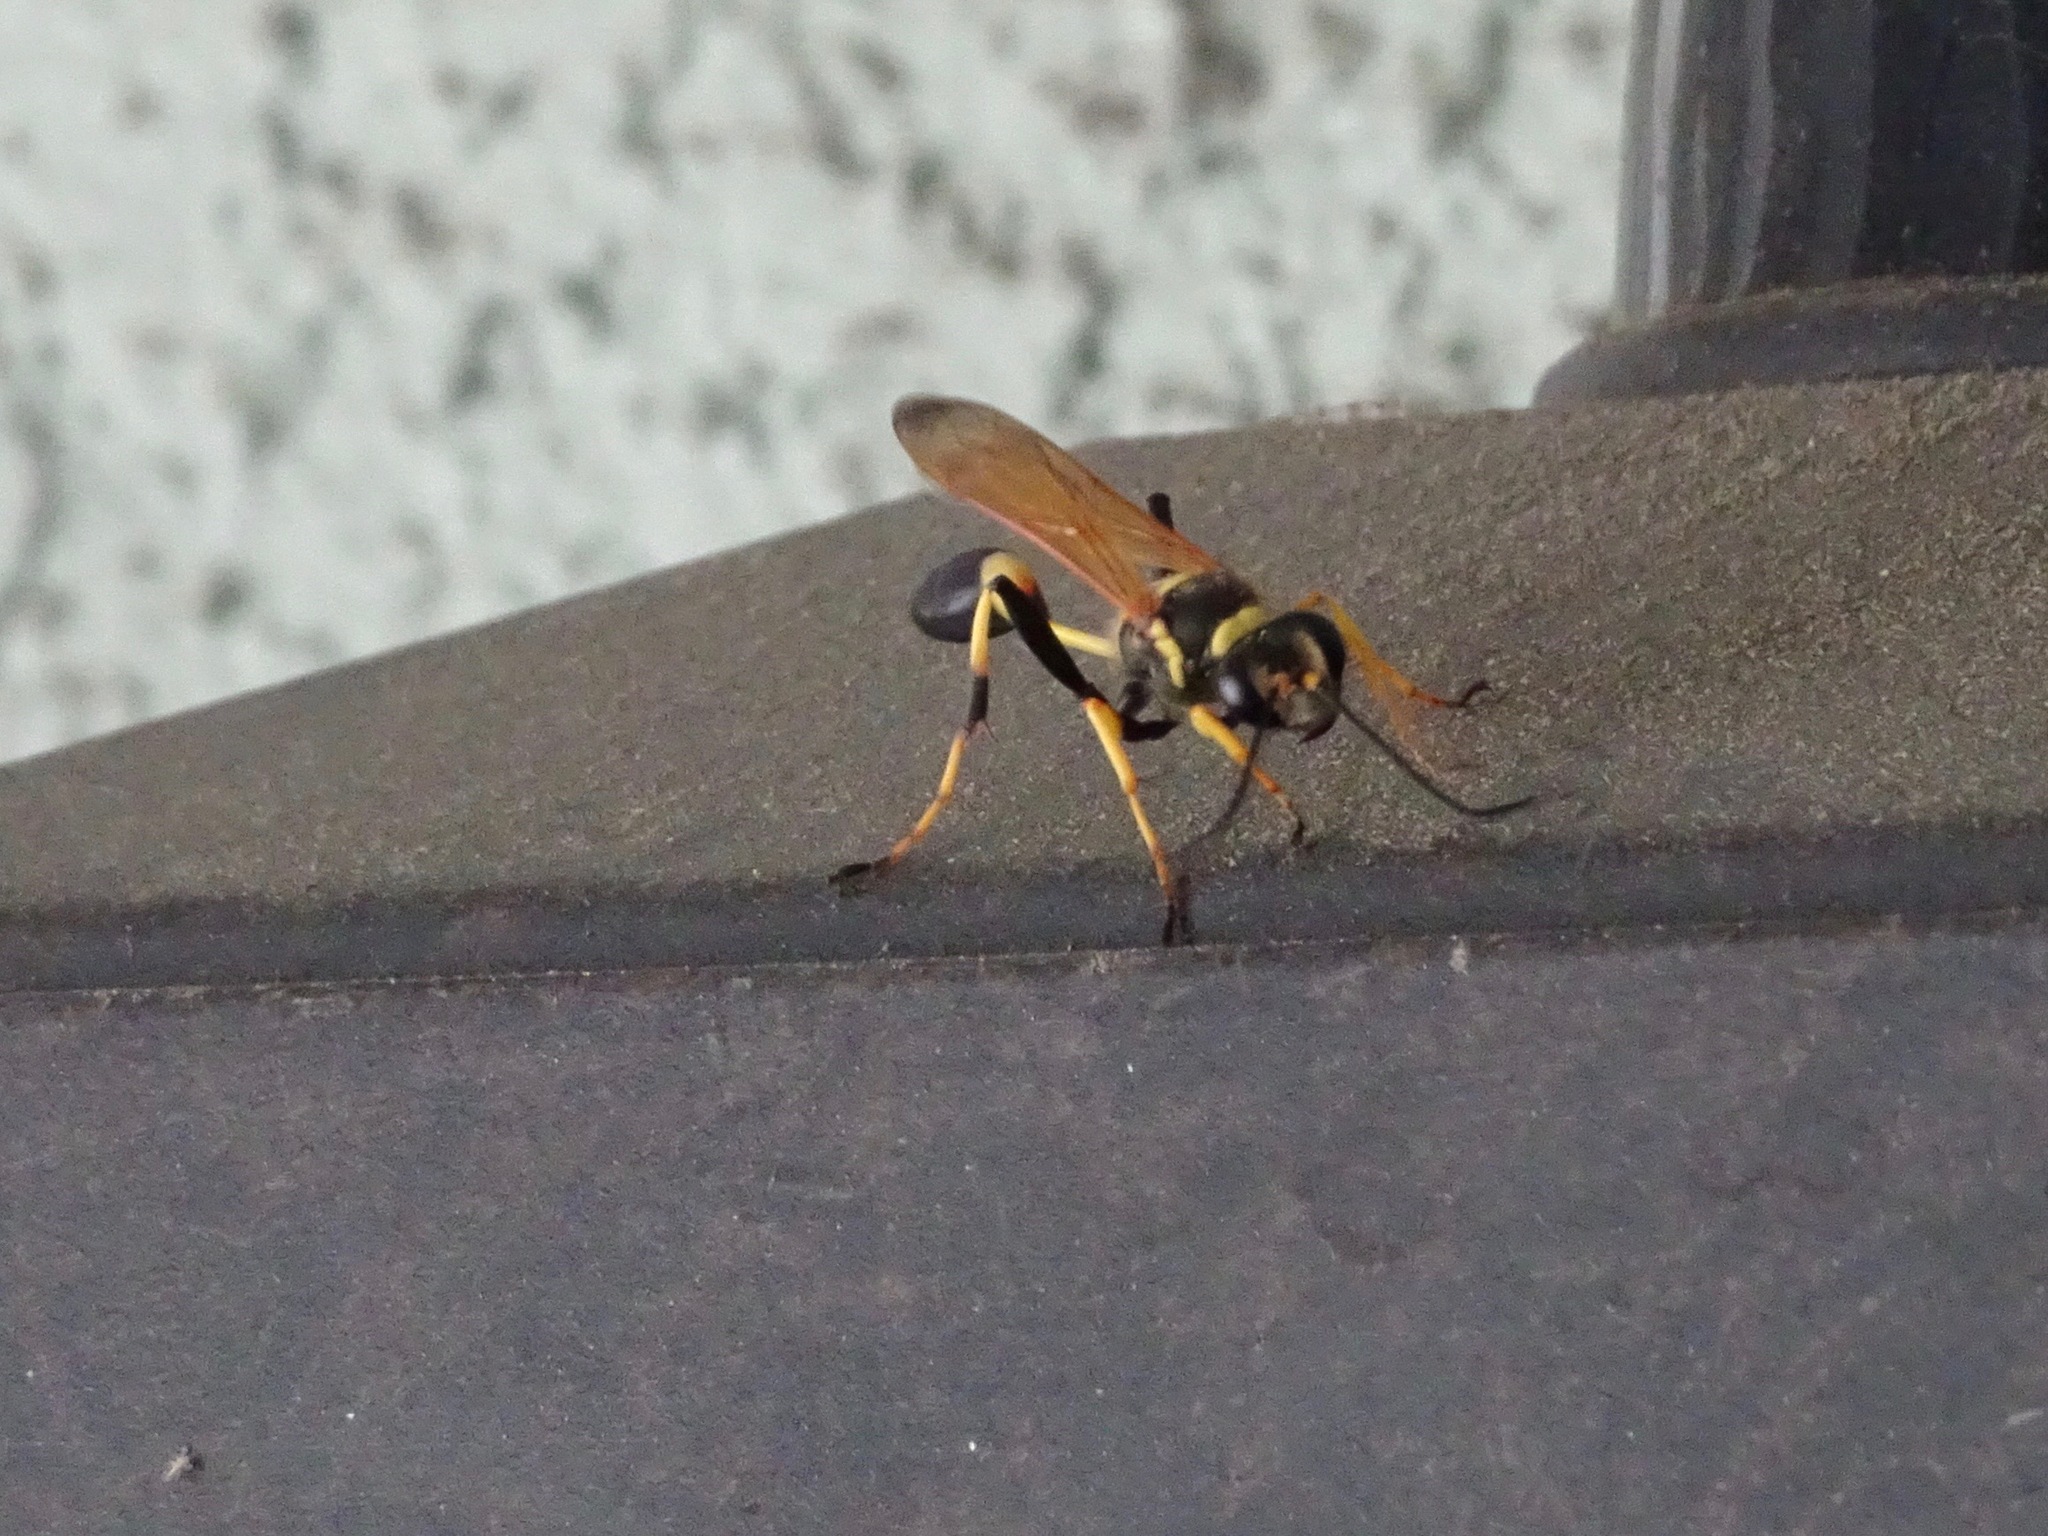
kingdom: Animalia
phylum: Arthropoda
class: Insecta
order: Hymenoptera
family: Sphecidae
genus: Sceliphron
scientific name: Sceliphron caementarium
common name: Mud dauber
